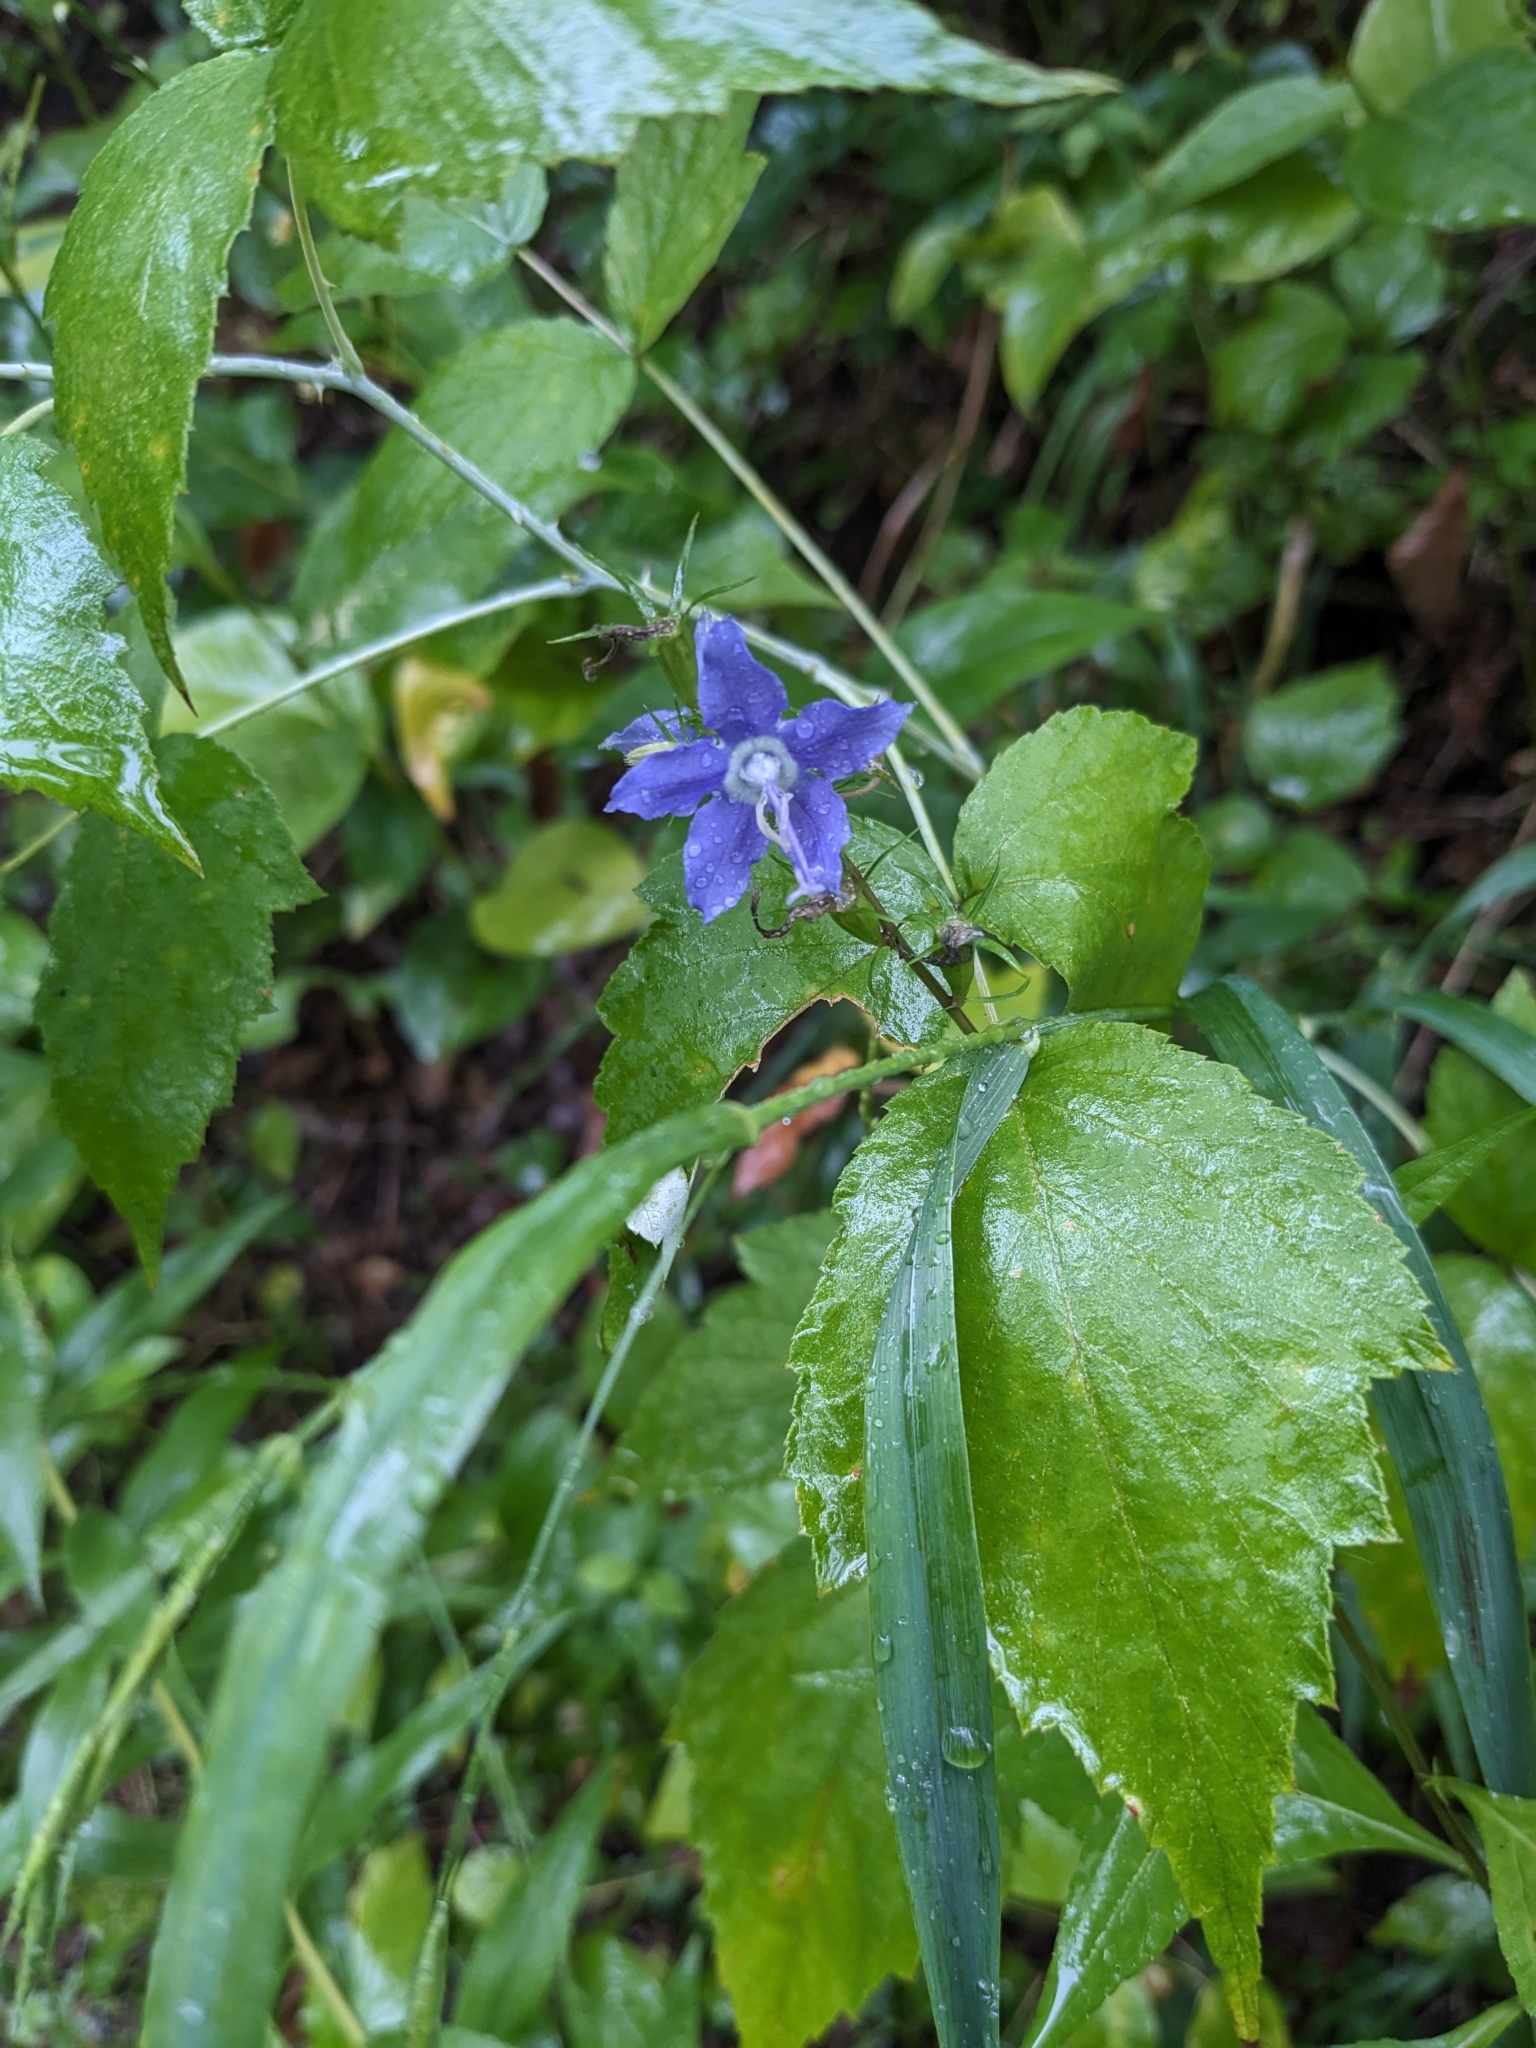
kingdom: Plantae
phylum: Tracheophyta
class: Magnoliopsida
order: Asterales
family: Campanulaceae
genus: Campanulastrum
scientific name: Campanulastrum americanum
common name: American bellflower
